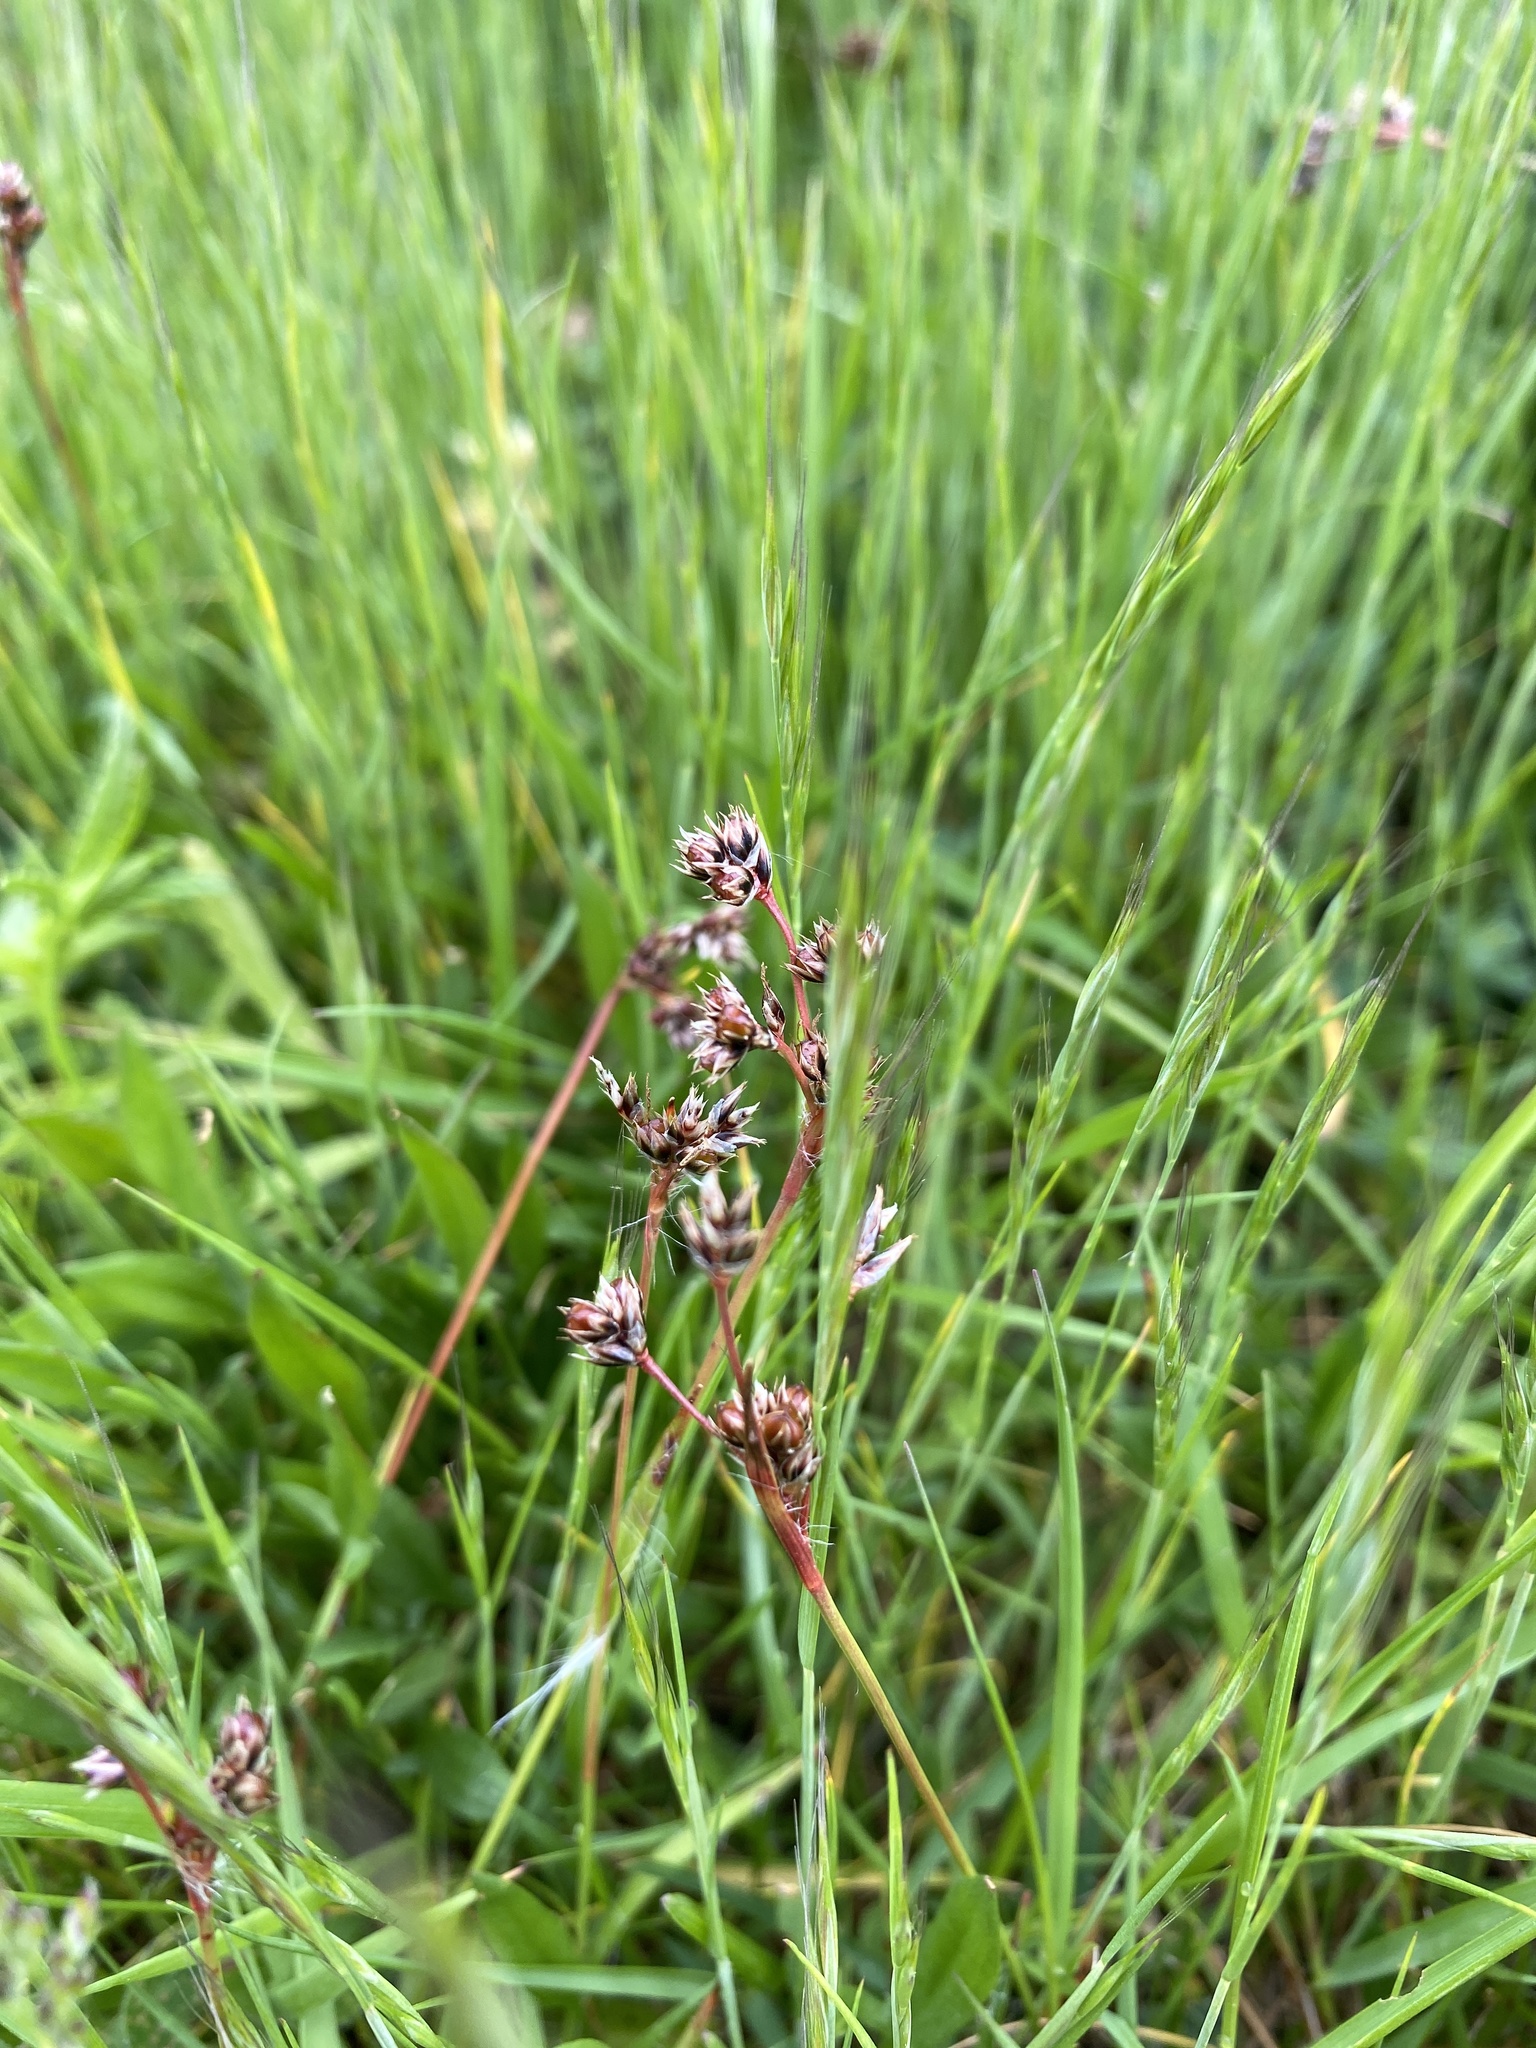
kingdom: Plantae
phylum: Tracheophyta
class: Liliopsida
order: Poales
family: Juncaceae
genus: Luzula
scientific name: Luzula campestris
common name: Field wood-rush
